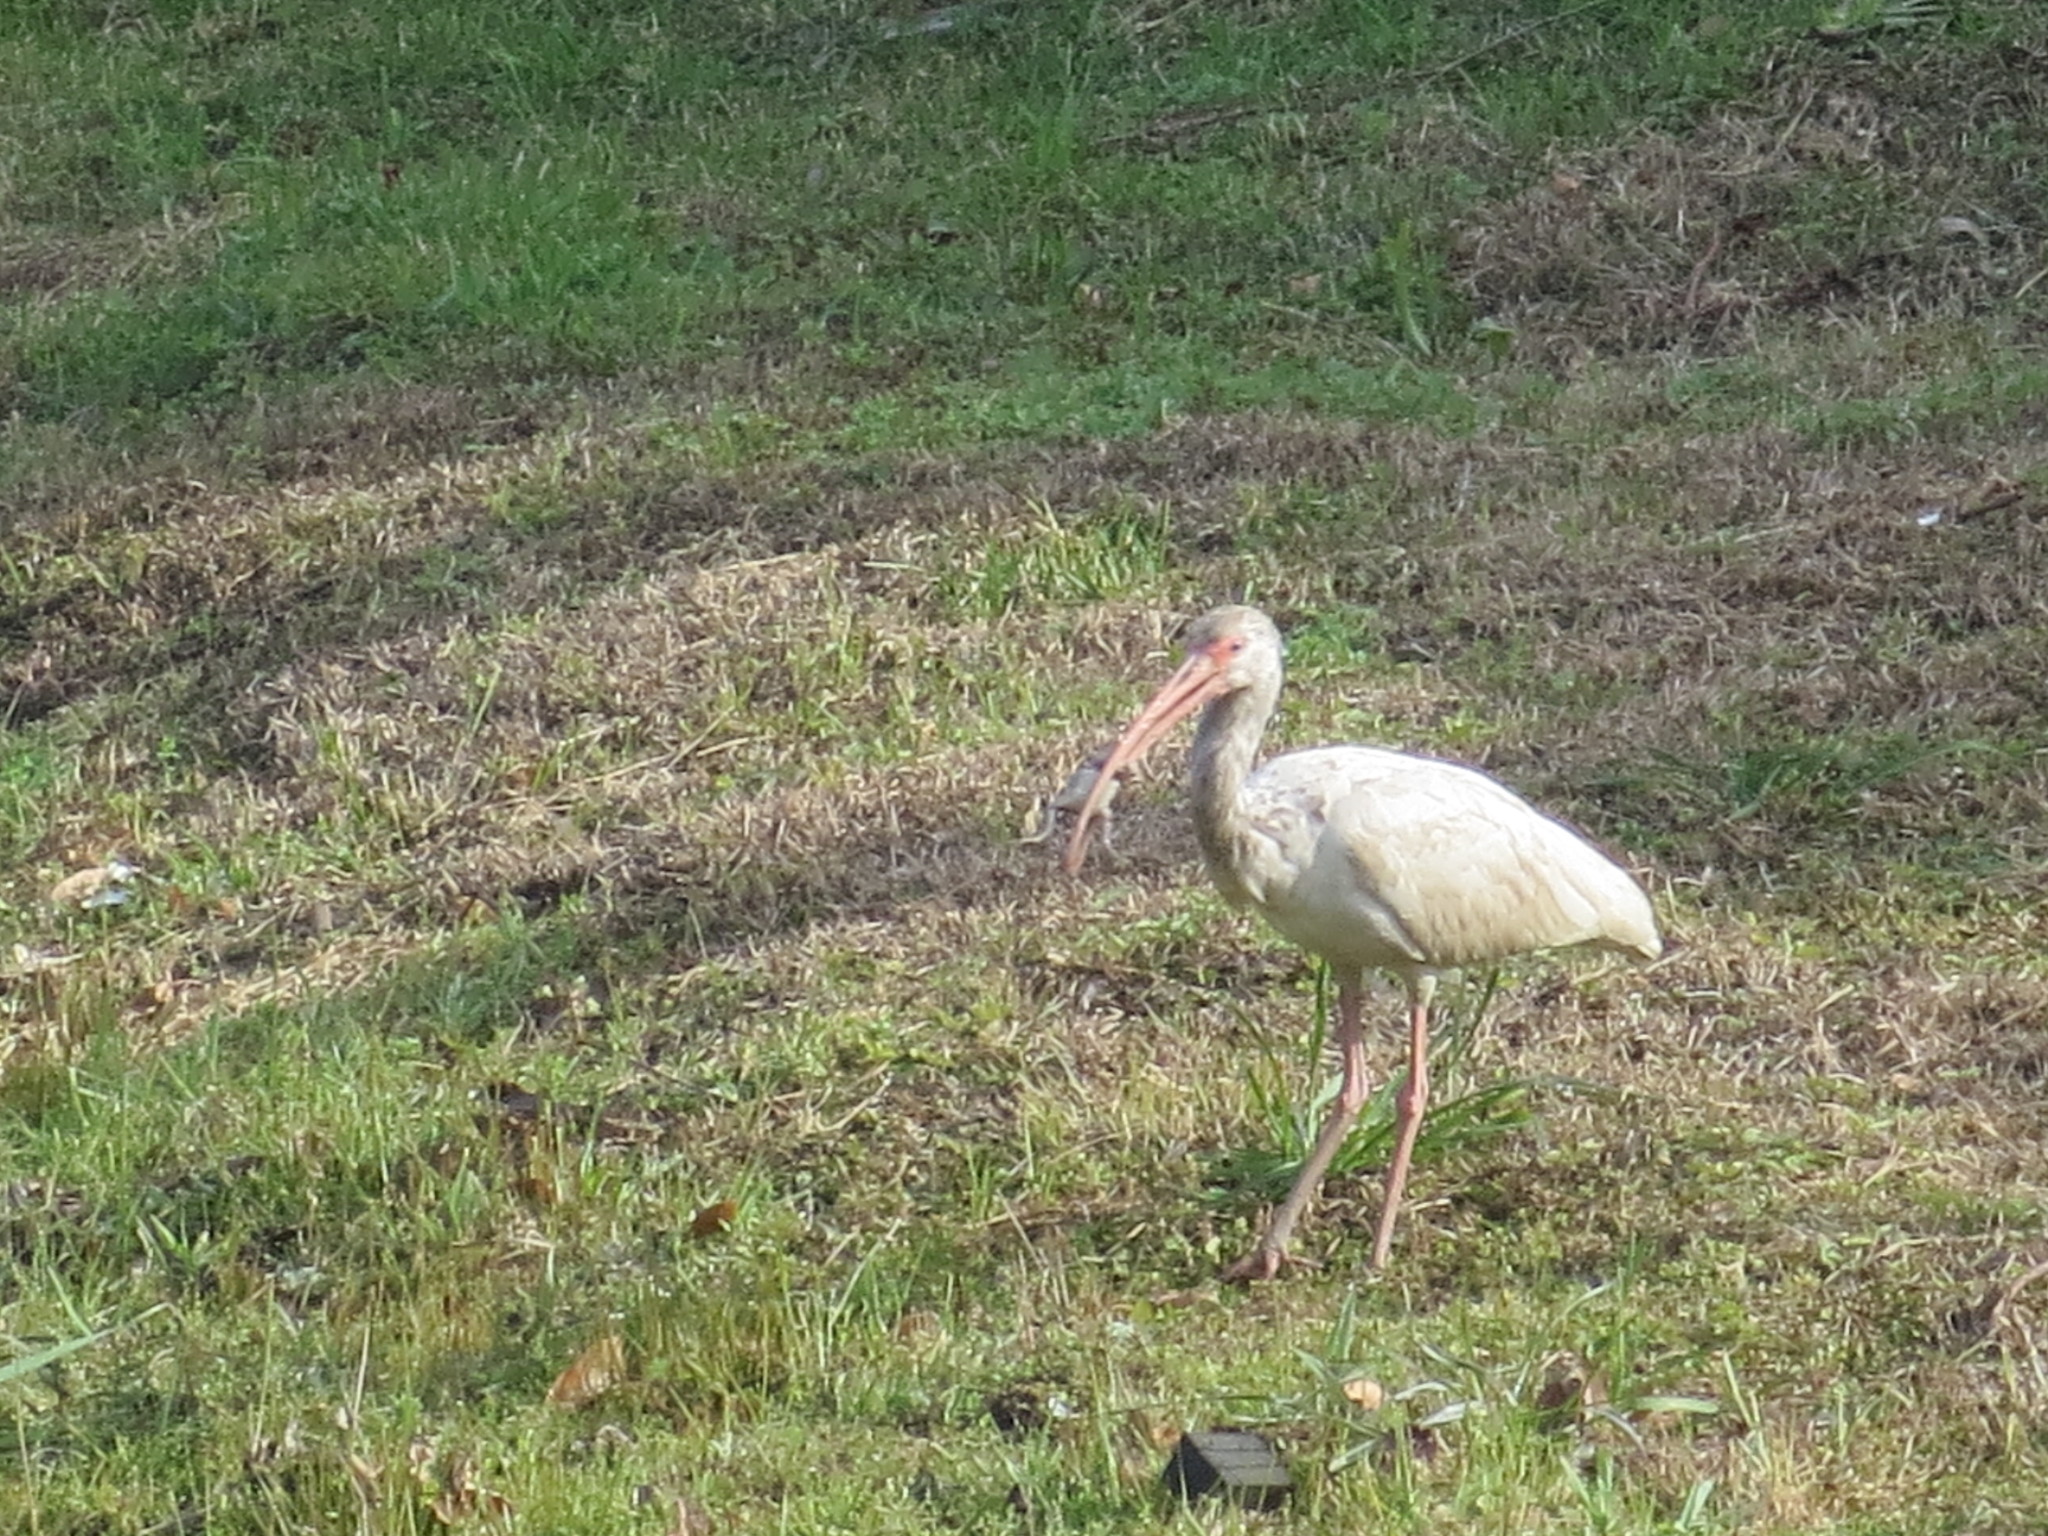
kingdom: Animalia
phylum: Chordata
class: Aves
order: Pelecaniformes
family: Threskiornithidae
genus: Eudocimus
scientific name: Eudocimus albus
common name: White ibis
